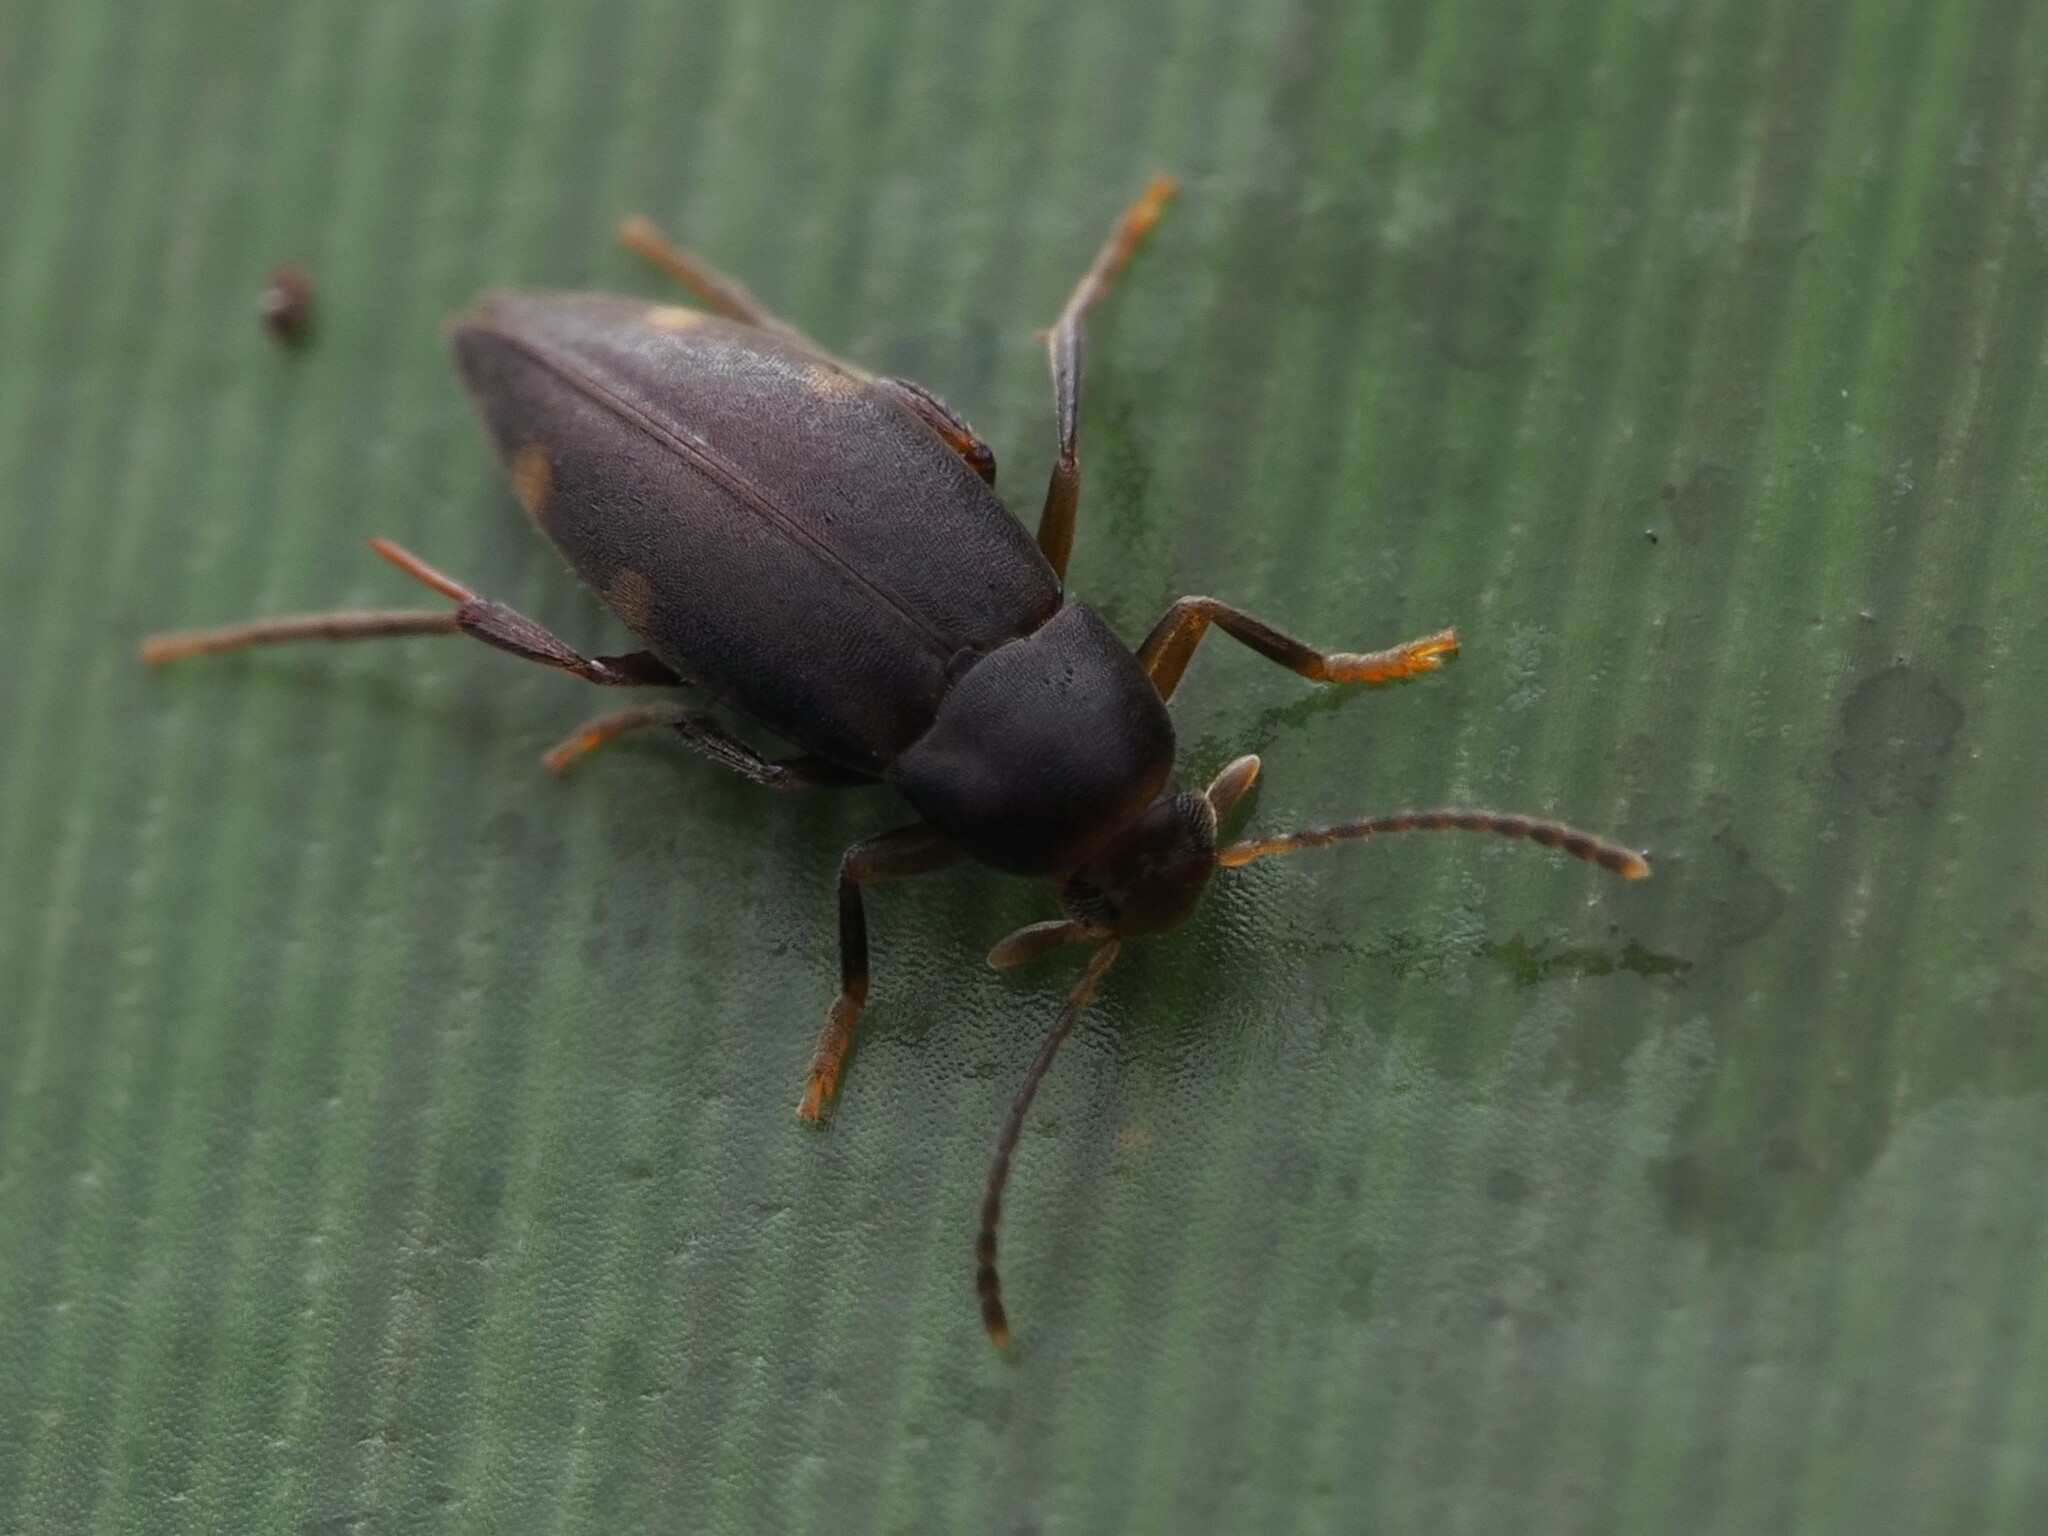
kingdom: Animalia
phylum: Arthropoda
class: Insecta
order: Coleoptera
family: Melandryidae
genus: Hylobia
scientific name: Hylobia
